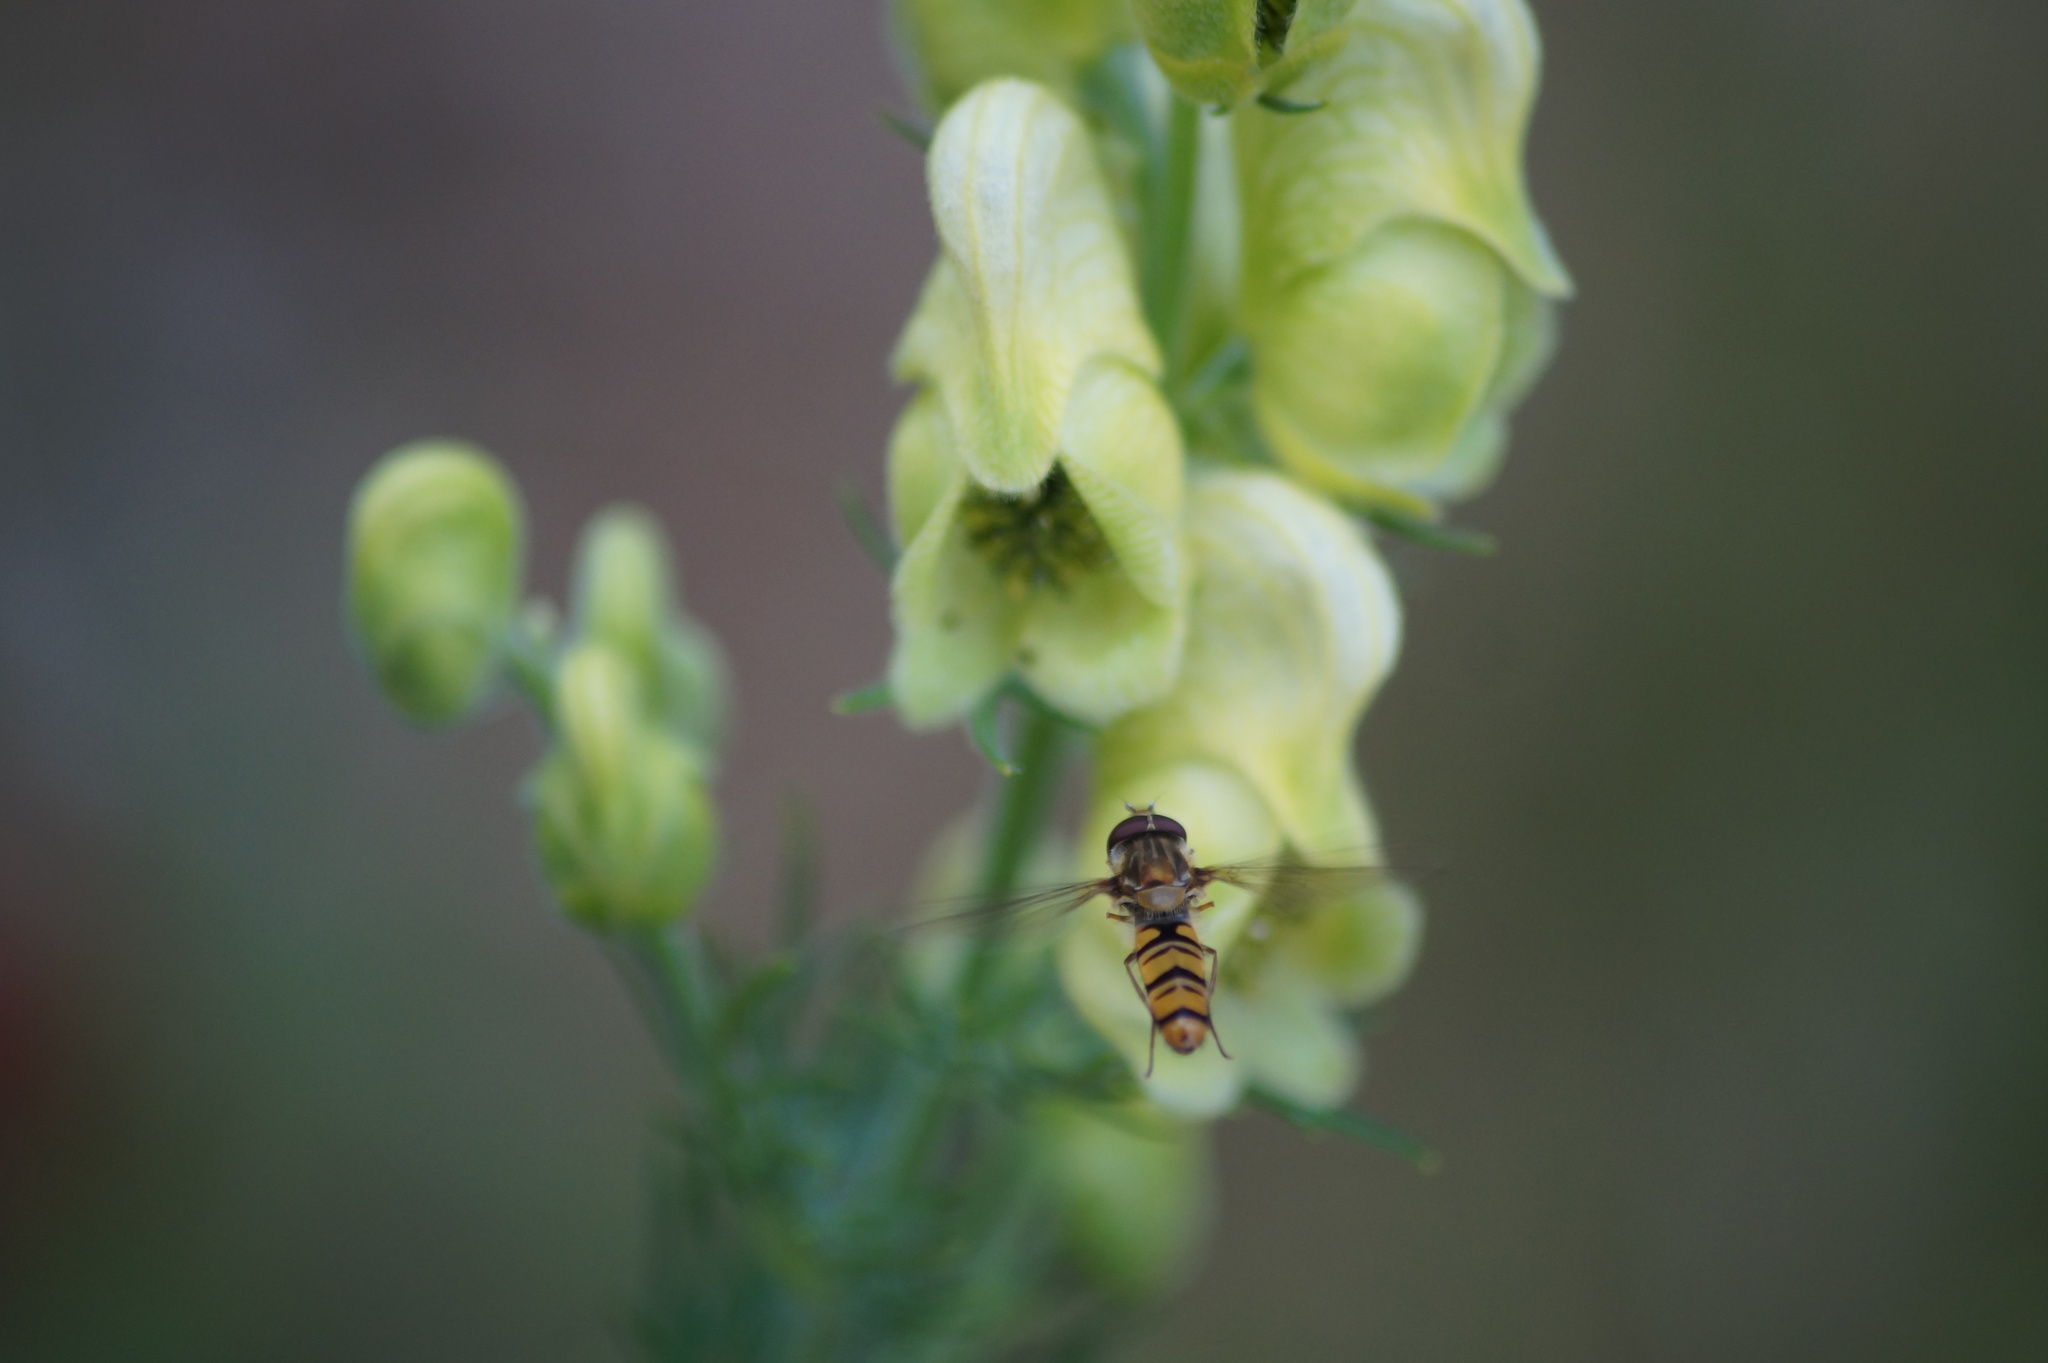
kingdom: Animalia
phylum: Arthropoda
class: Insecta
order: Diptera
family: Syrphidae
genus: Episyrphus
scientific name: Episyrphus balteatus
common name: Marmalade hoverfly
